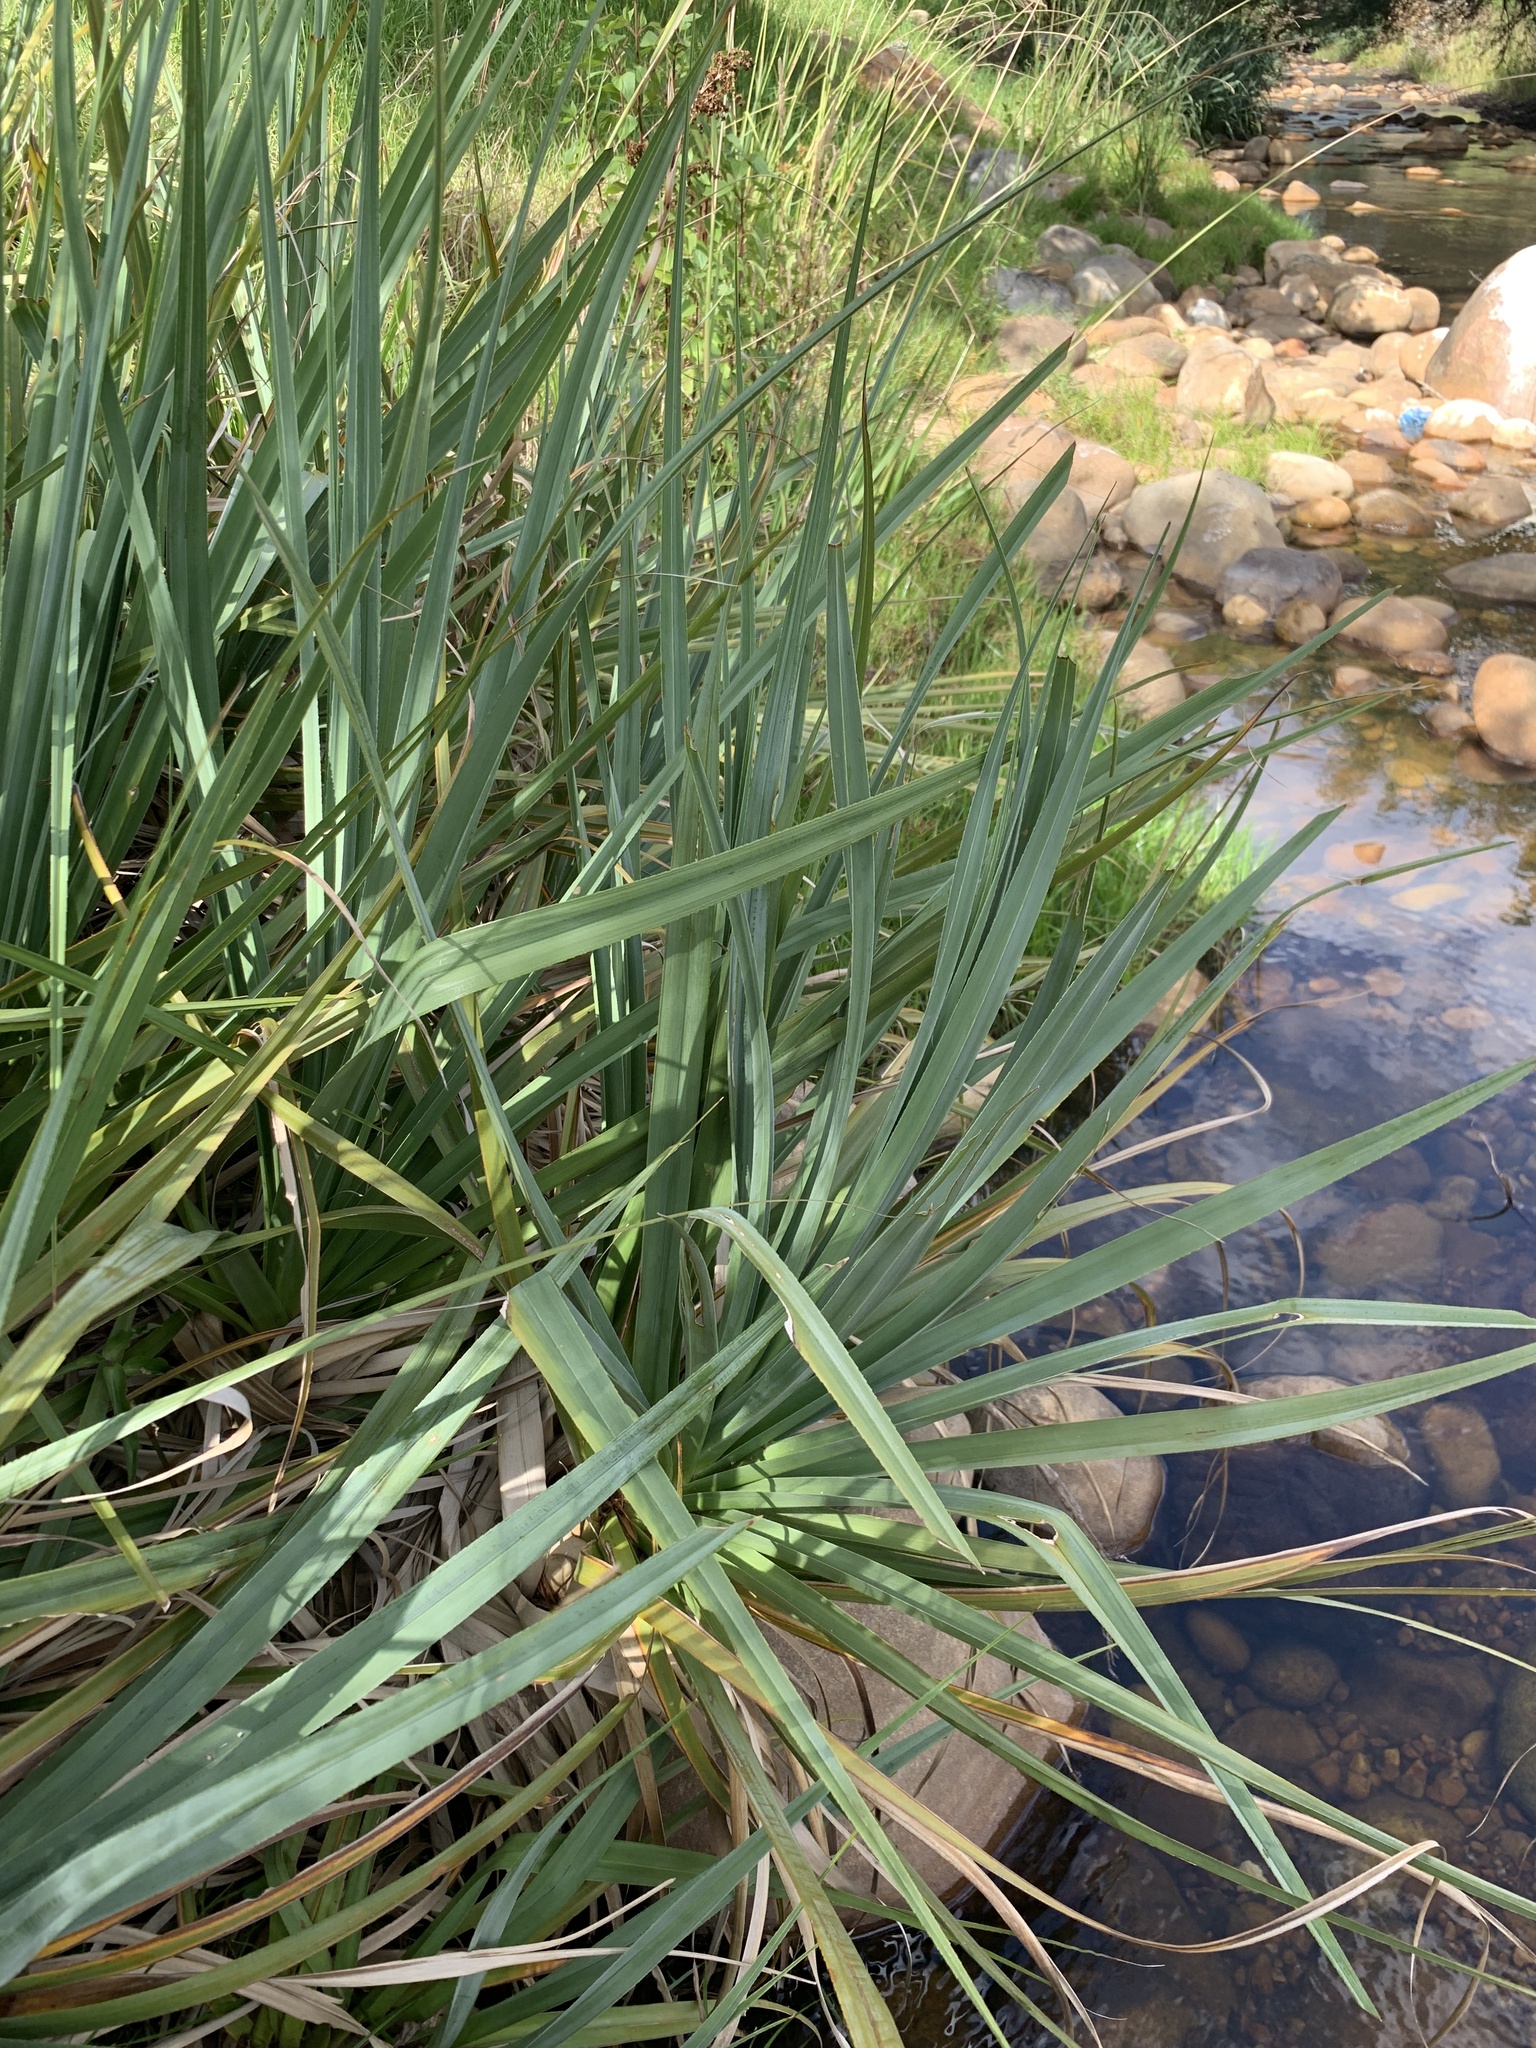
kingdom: Plantae
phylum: Tracheophyta
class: Liliopsida
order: Poales
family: Thurniaceae
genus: Prionium
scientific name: Prionium serratum
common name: Palmiet
